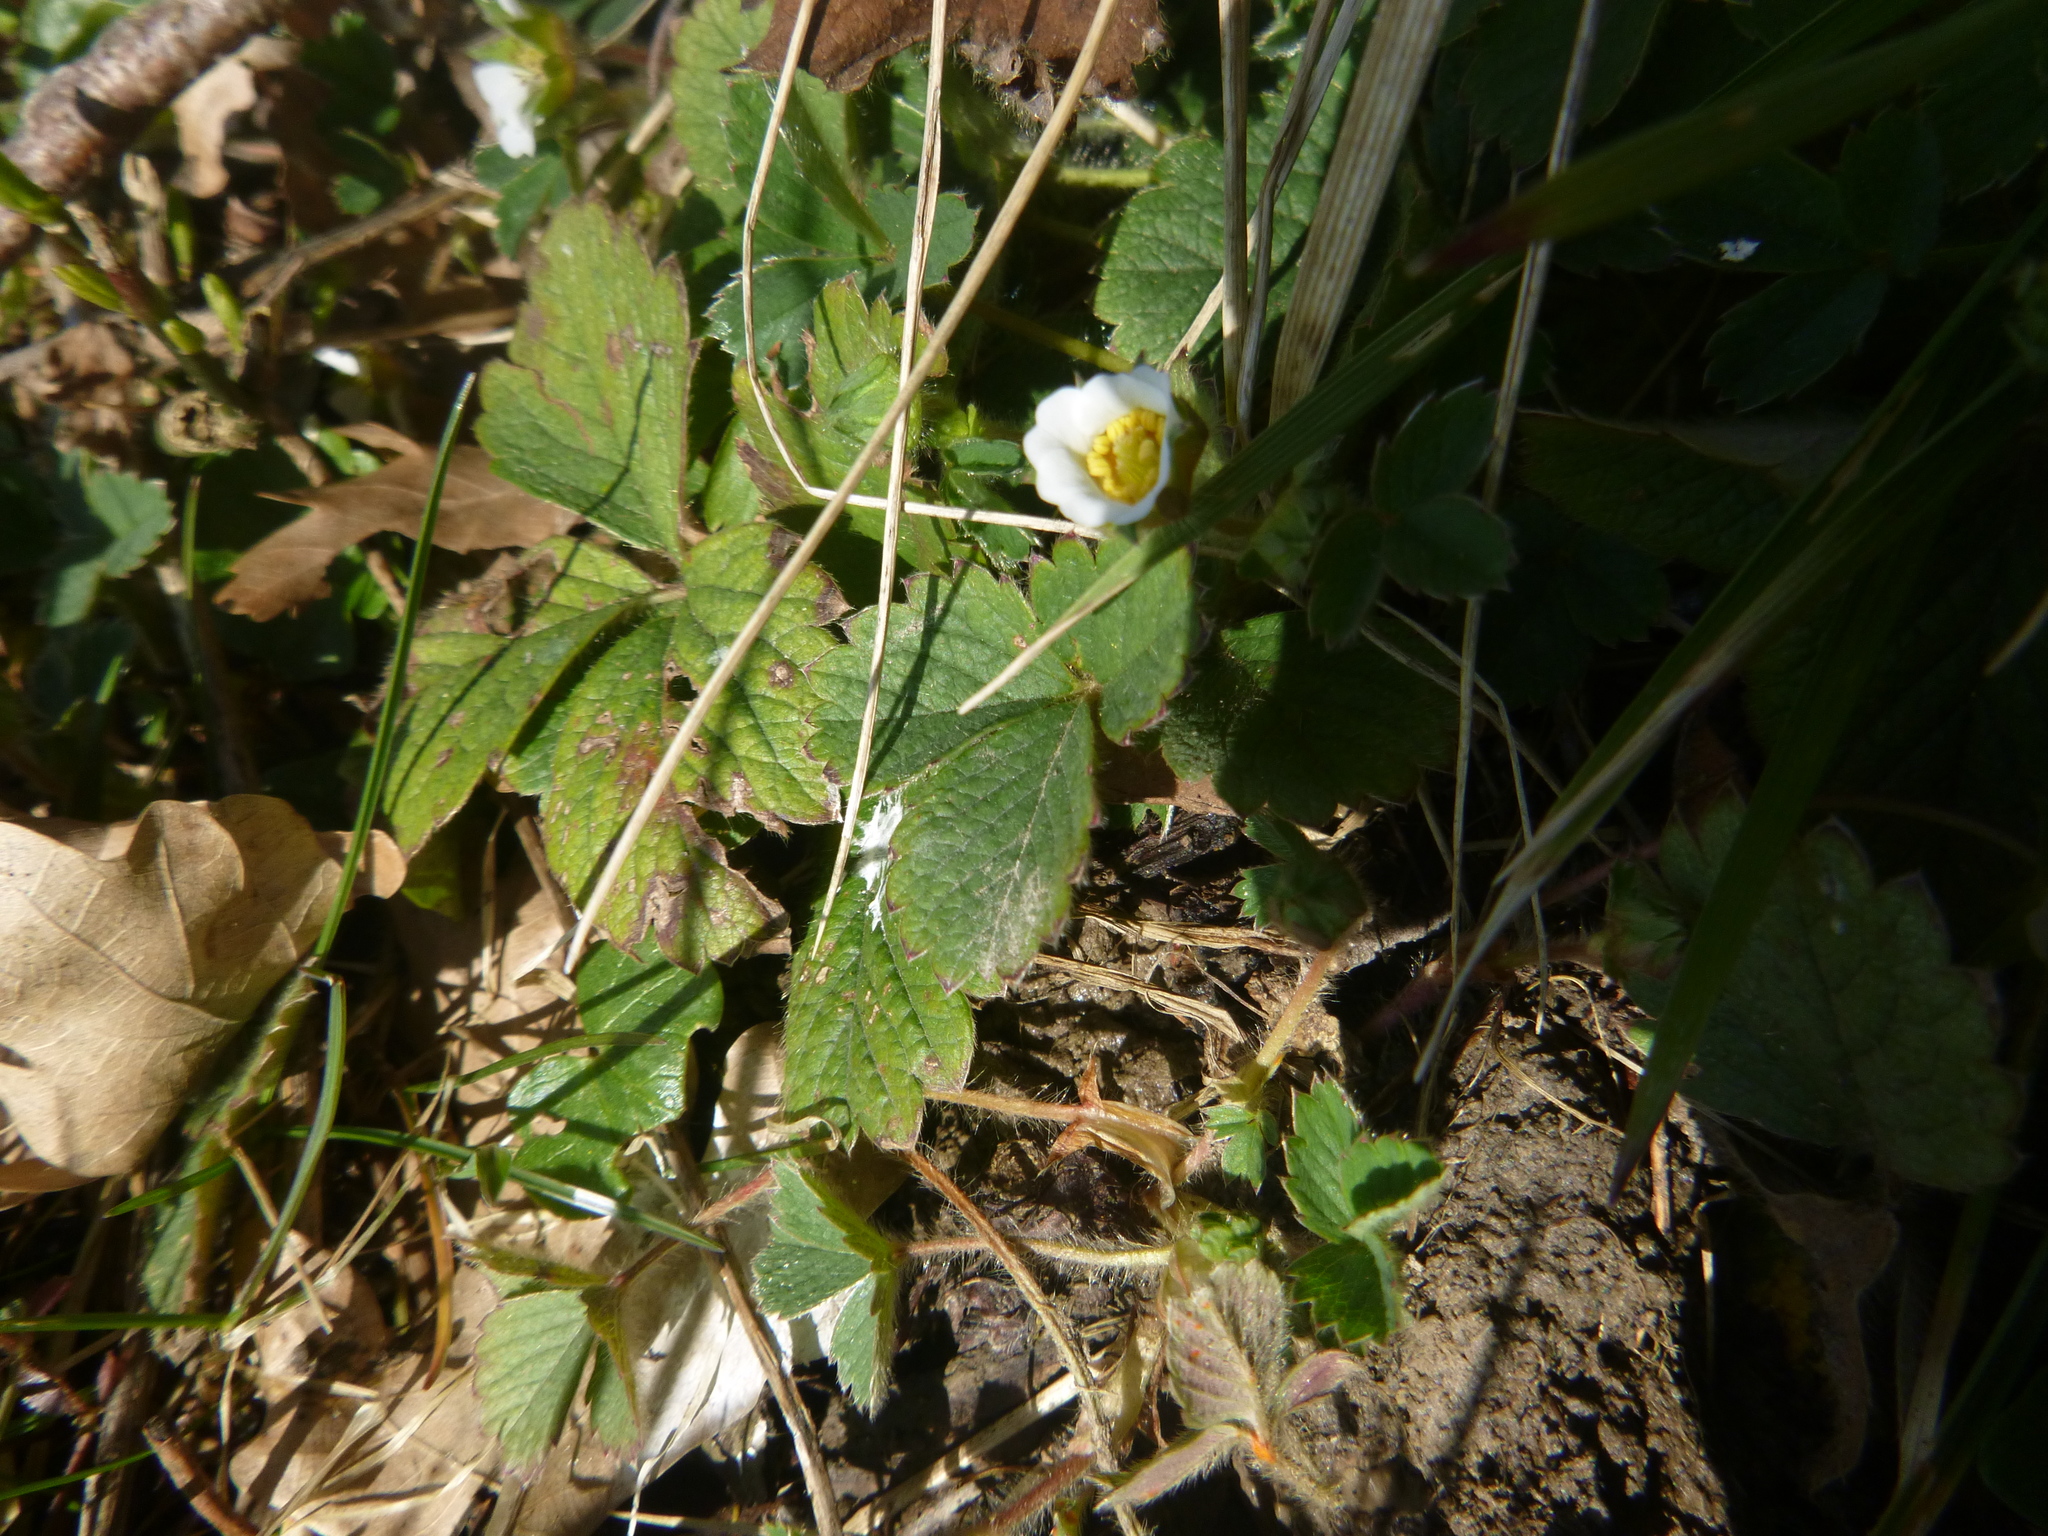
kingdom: Plantae
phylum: Tracheophyta
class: Magnoliopsida
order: Rosales
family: Rosaceae
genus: Potentilla
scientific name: Potentilla sterilis
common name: Barren strawberry
